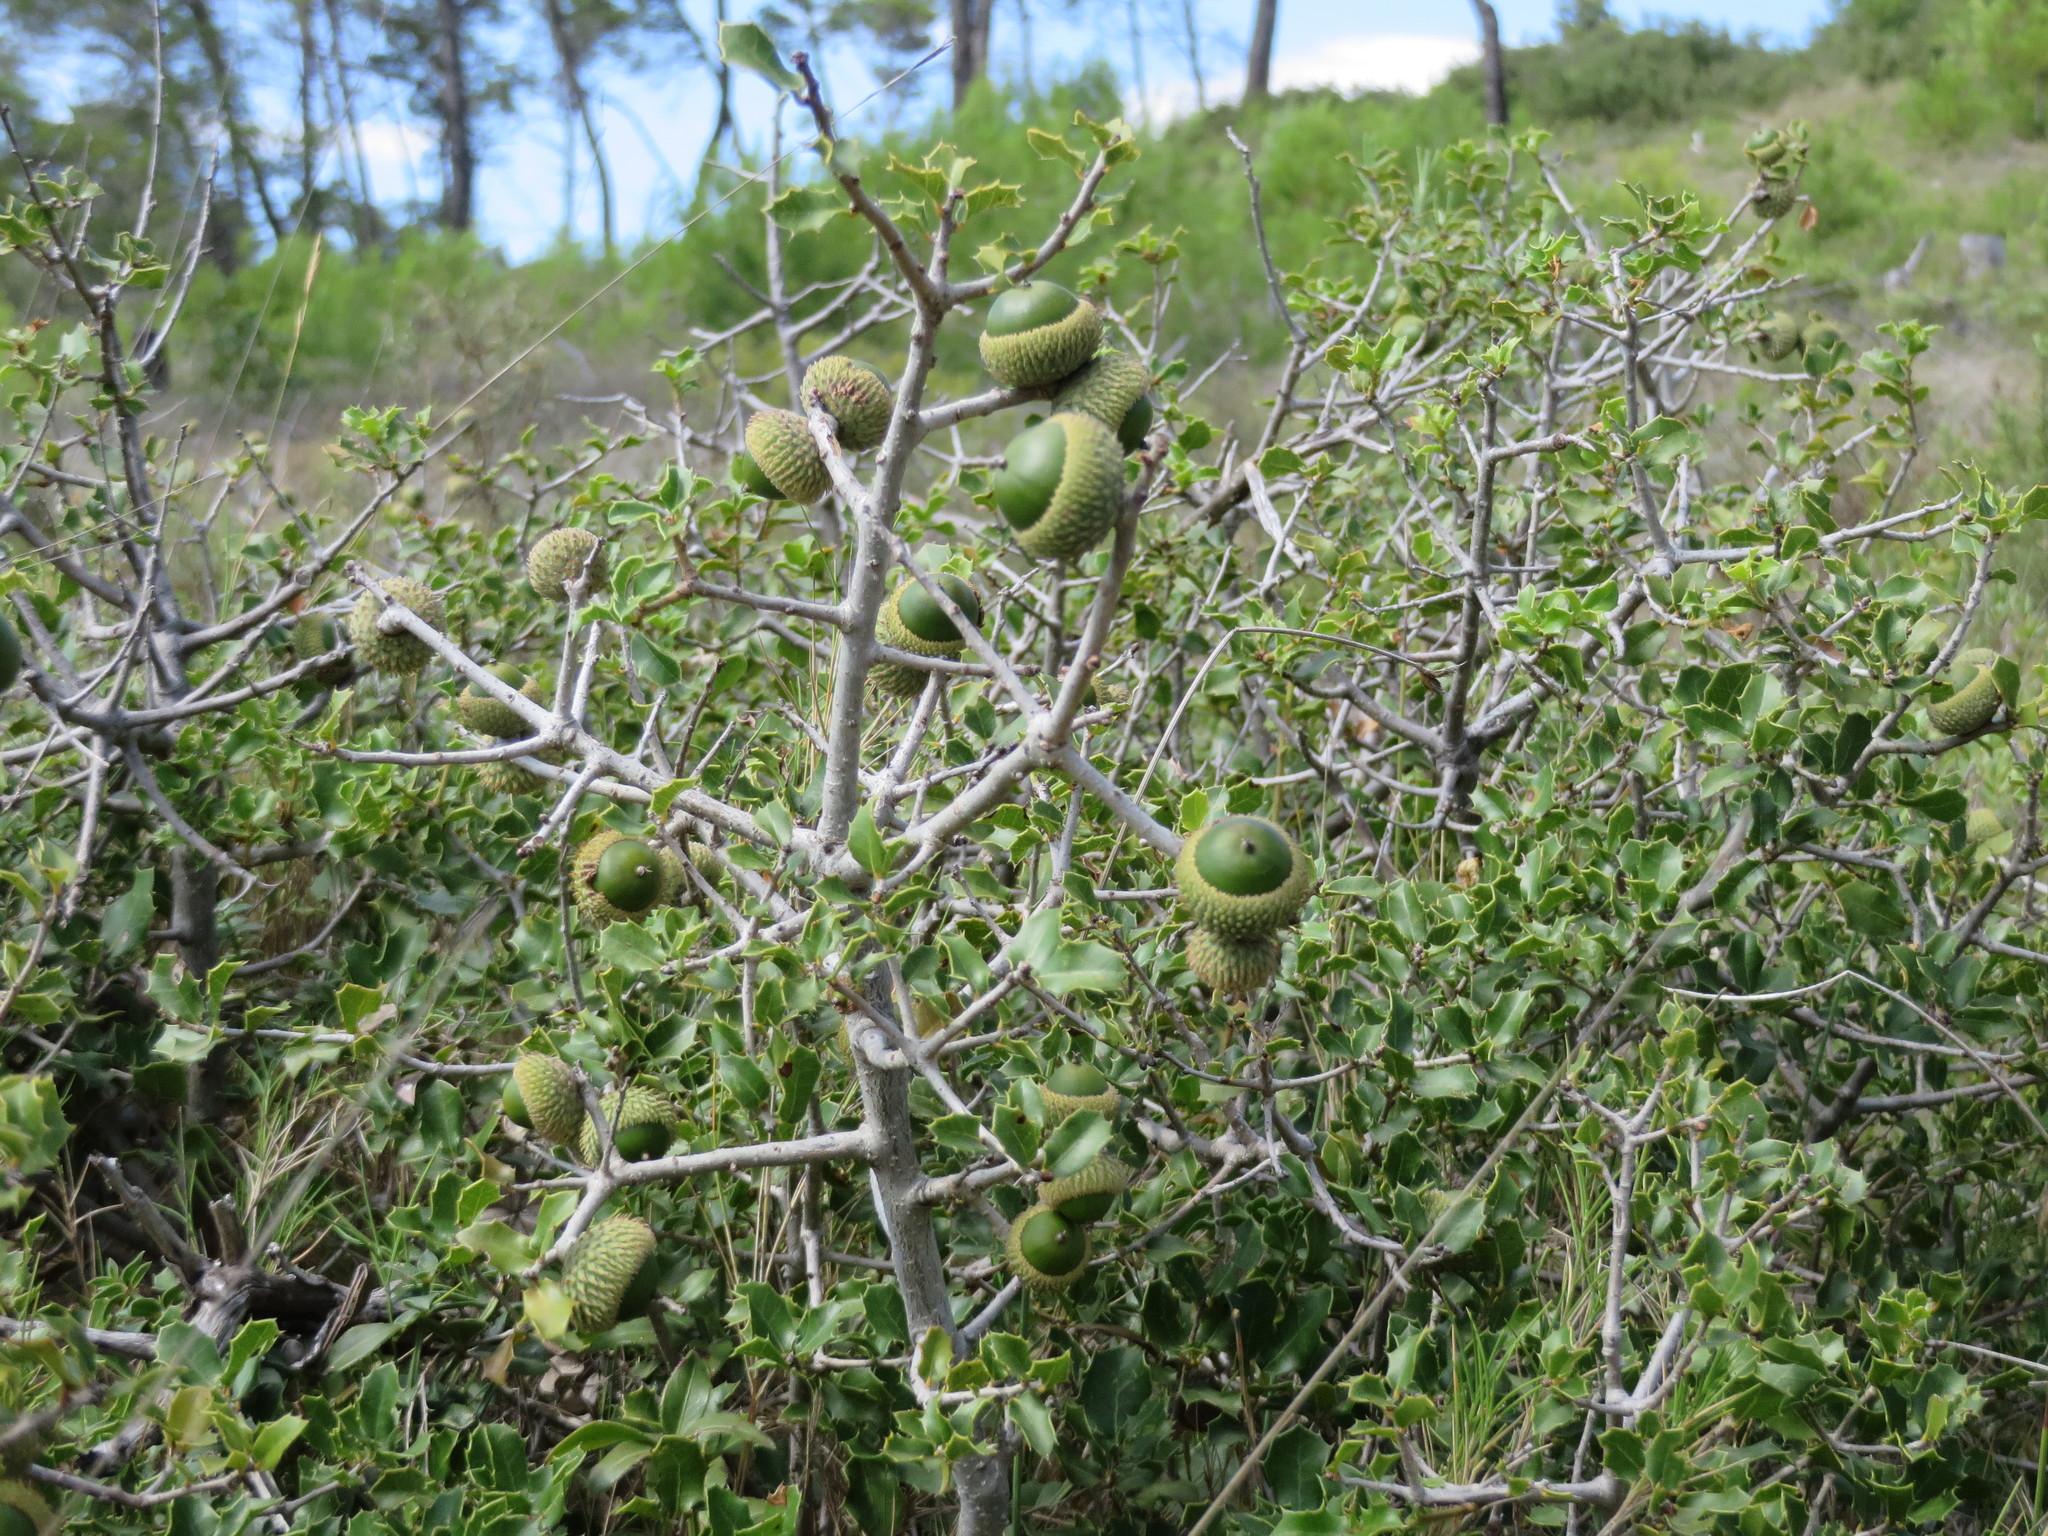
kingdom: Plantae
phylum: Tracheophyta
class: Magnoliopsida
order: Fagales
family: Fagaceae
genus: Quercus
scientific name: Quercus coccifera
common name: Kermes oak
